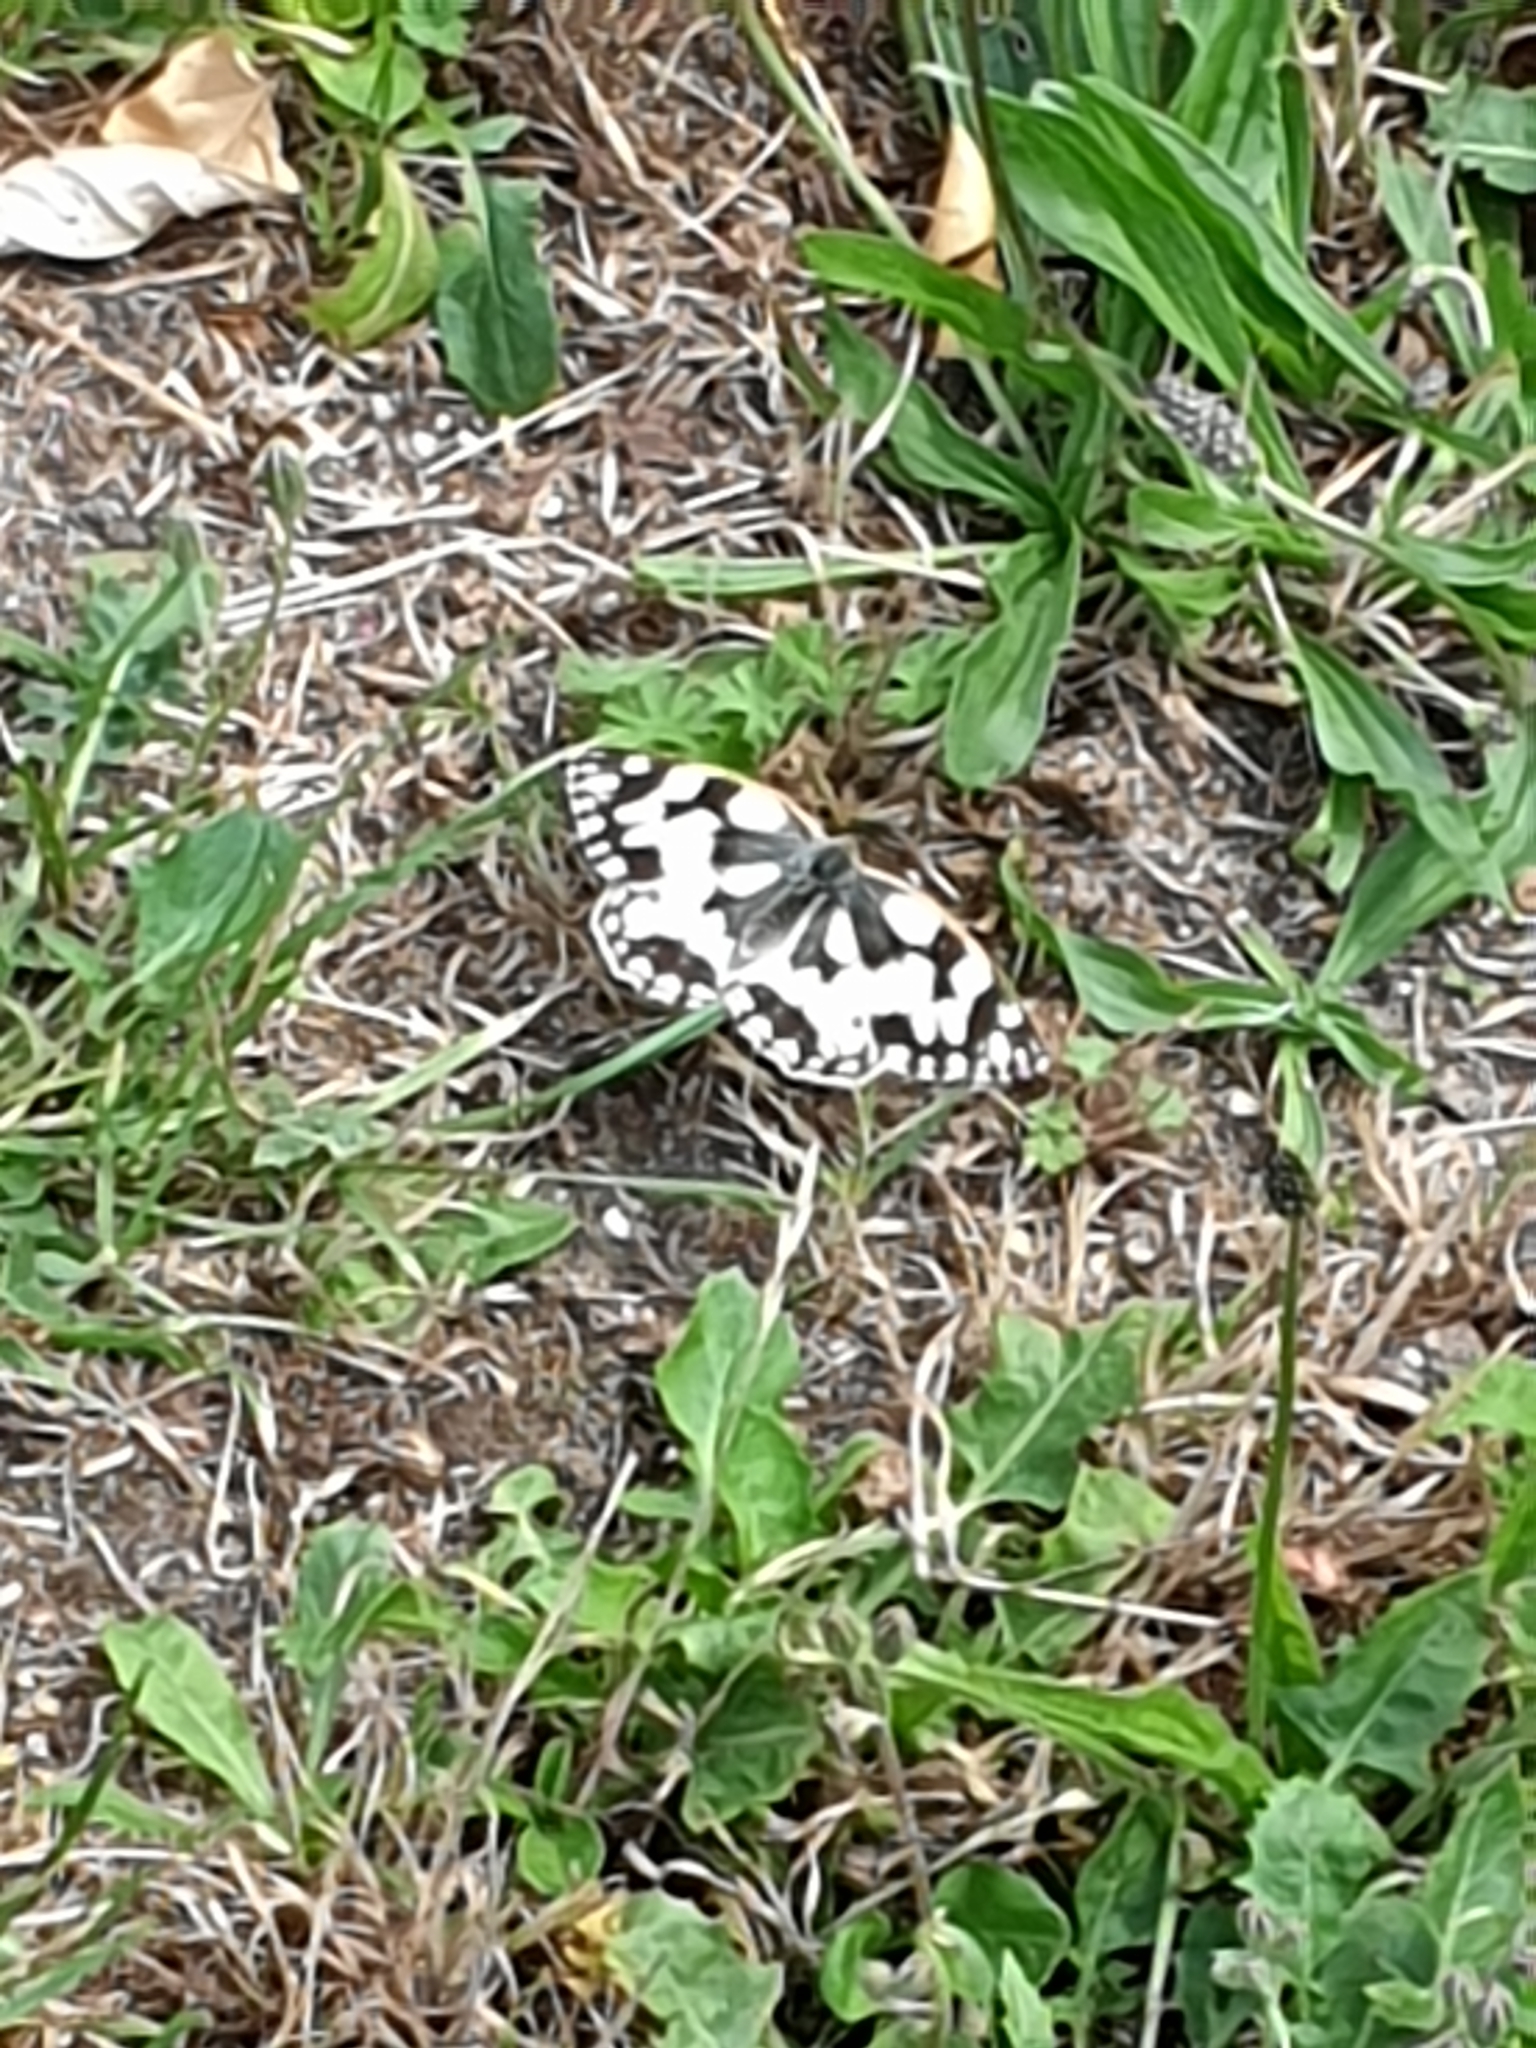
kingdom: Animalia
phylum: Arthropoda
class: Insecta
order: Lepidoptera
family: Nymphalidae
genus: Melanargia
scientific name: Melanargia galathea
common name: Marbled white
